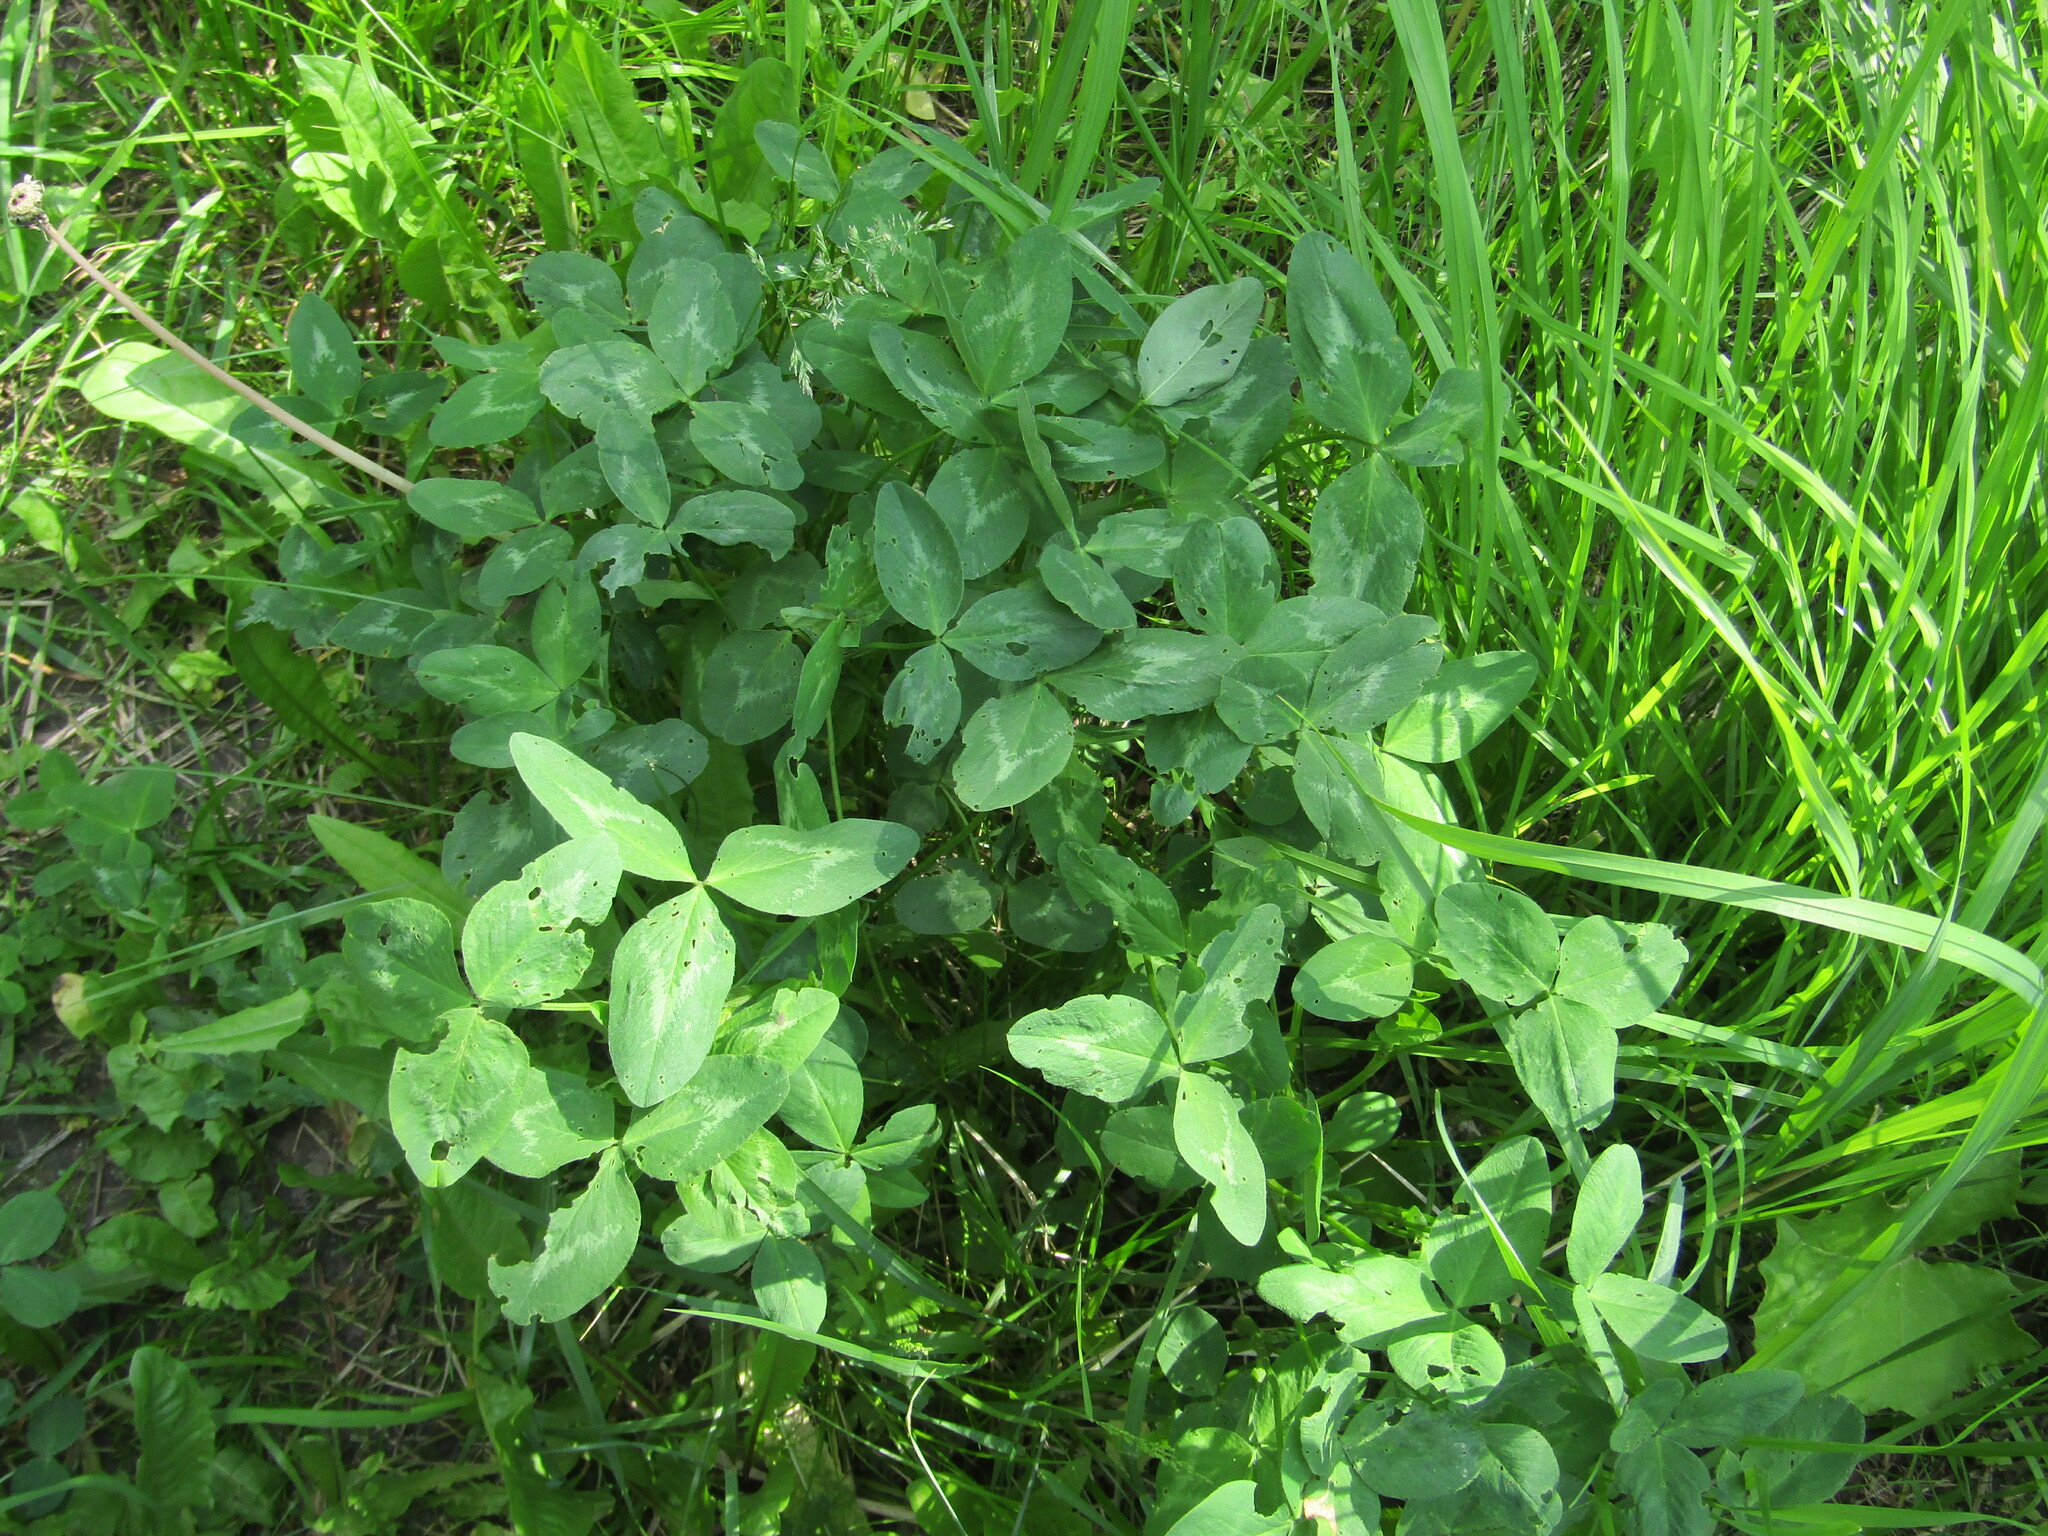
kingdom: Plantae
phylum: Tracheophyta
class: Magnoliopsida
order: Fabales
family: Fabaceae
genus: Trifolium
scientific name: Trifolium pratense
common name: Red clover
